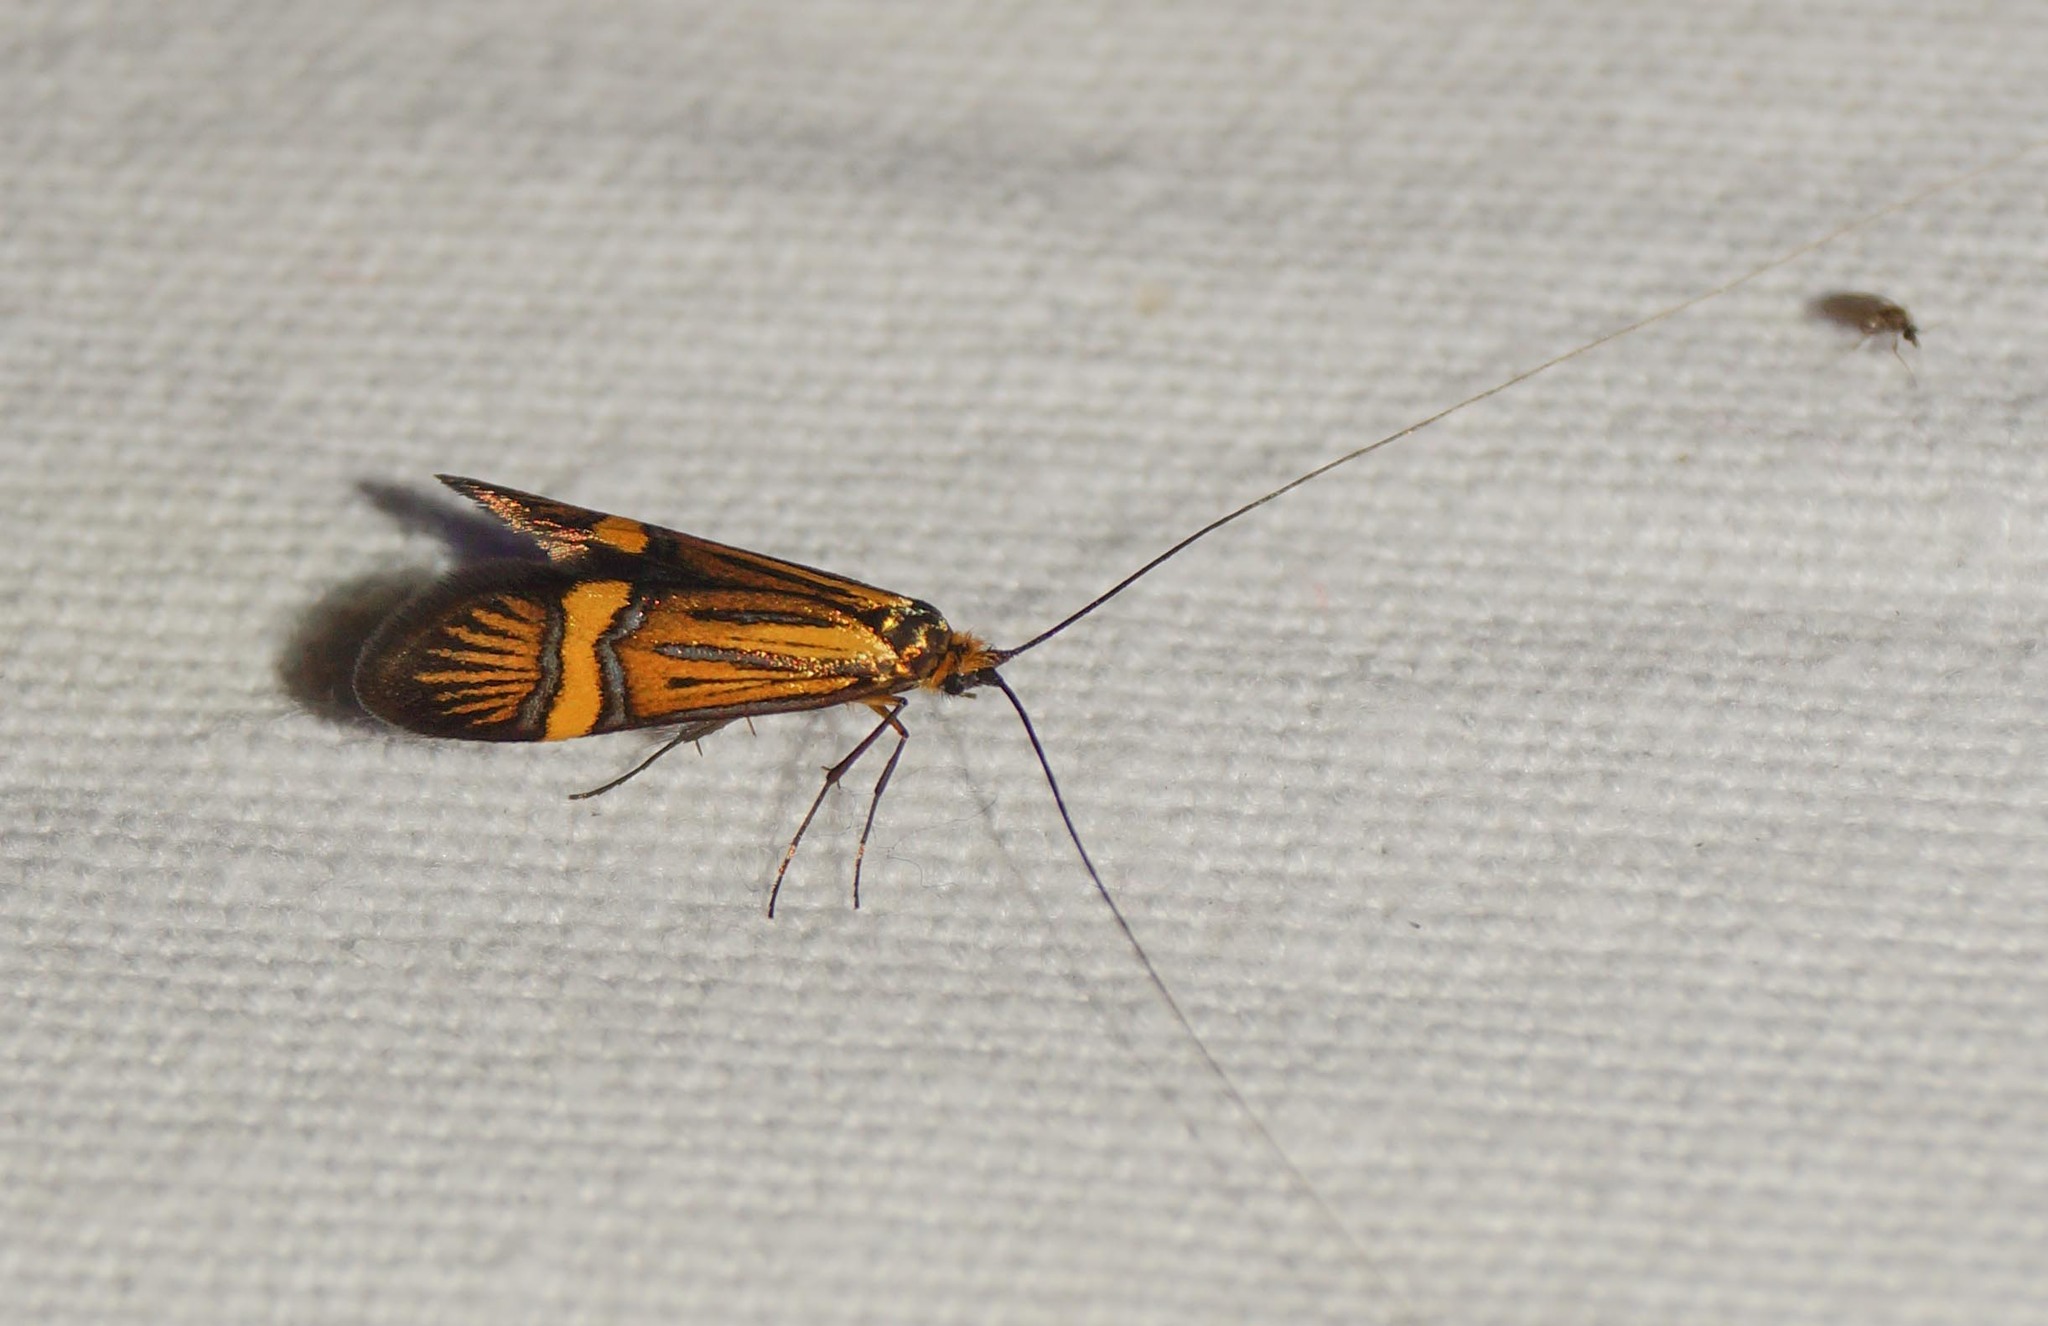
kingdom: Animalia
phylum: Arthropoda
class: Insecta
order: Lepidoptera
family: Adelidae
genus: Nemophora
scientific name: Nemophora
